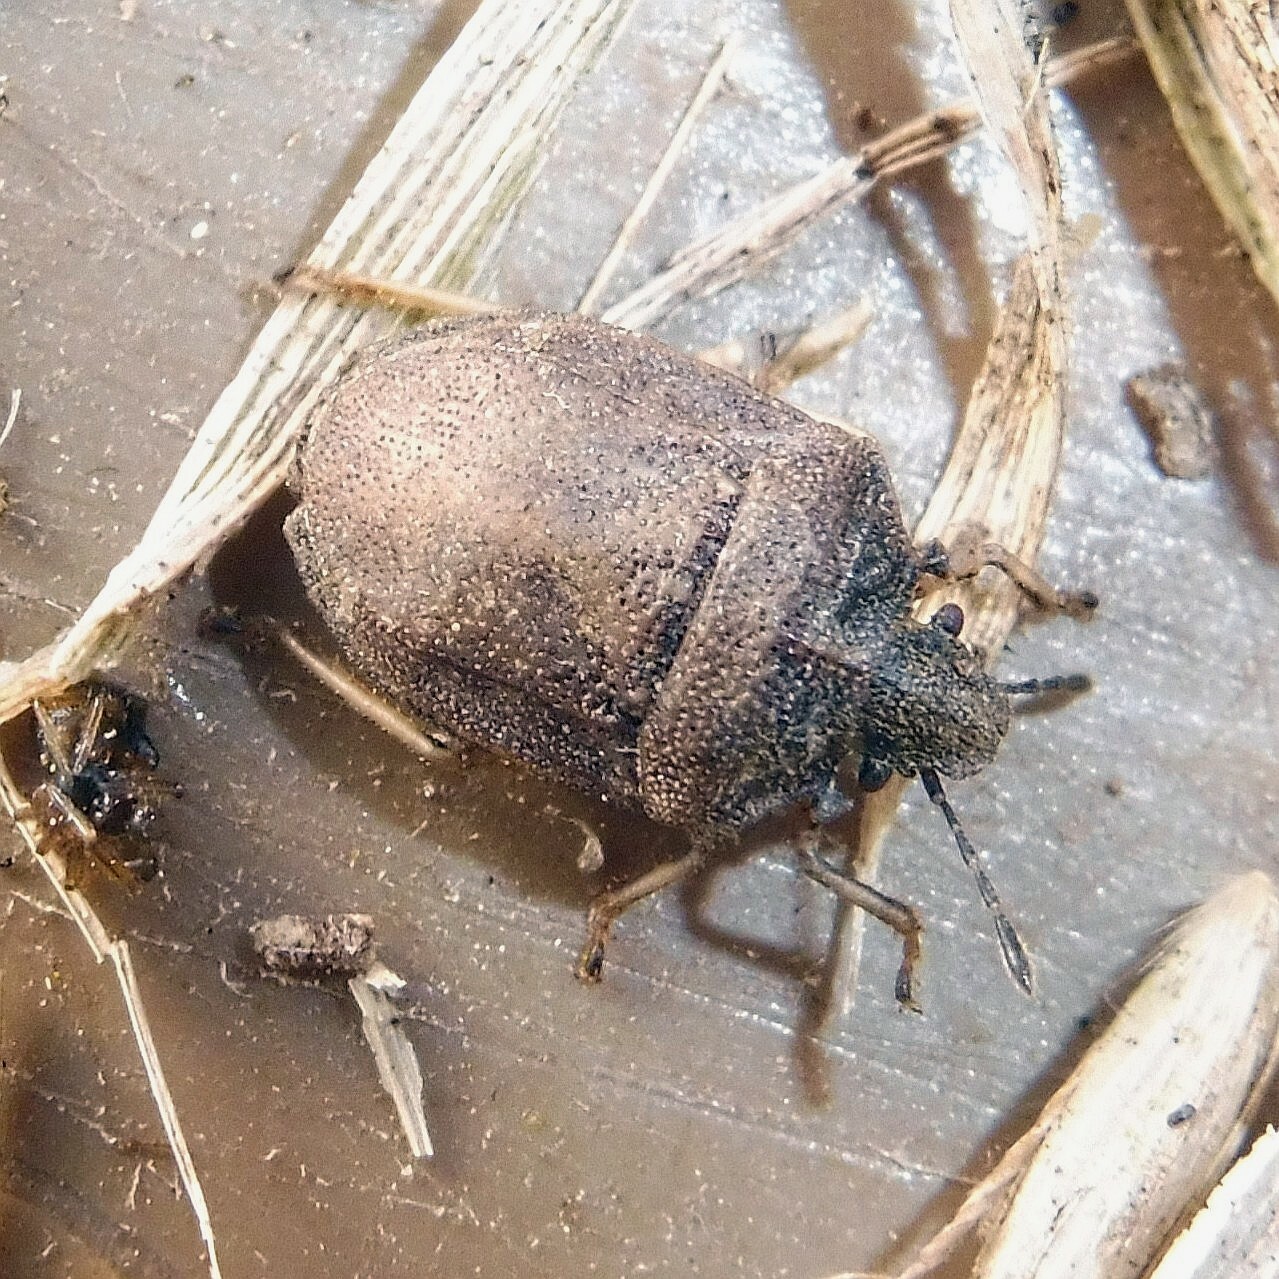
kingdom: Animalia
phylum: Arthropoda
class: Insecta
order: Hemiptera
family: Pentatomidae
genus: Podops
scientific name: Podops inunctus
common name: Turtle bug
